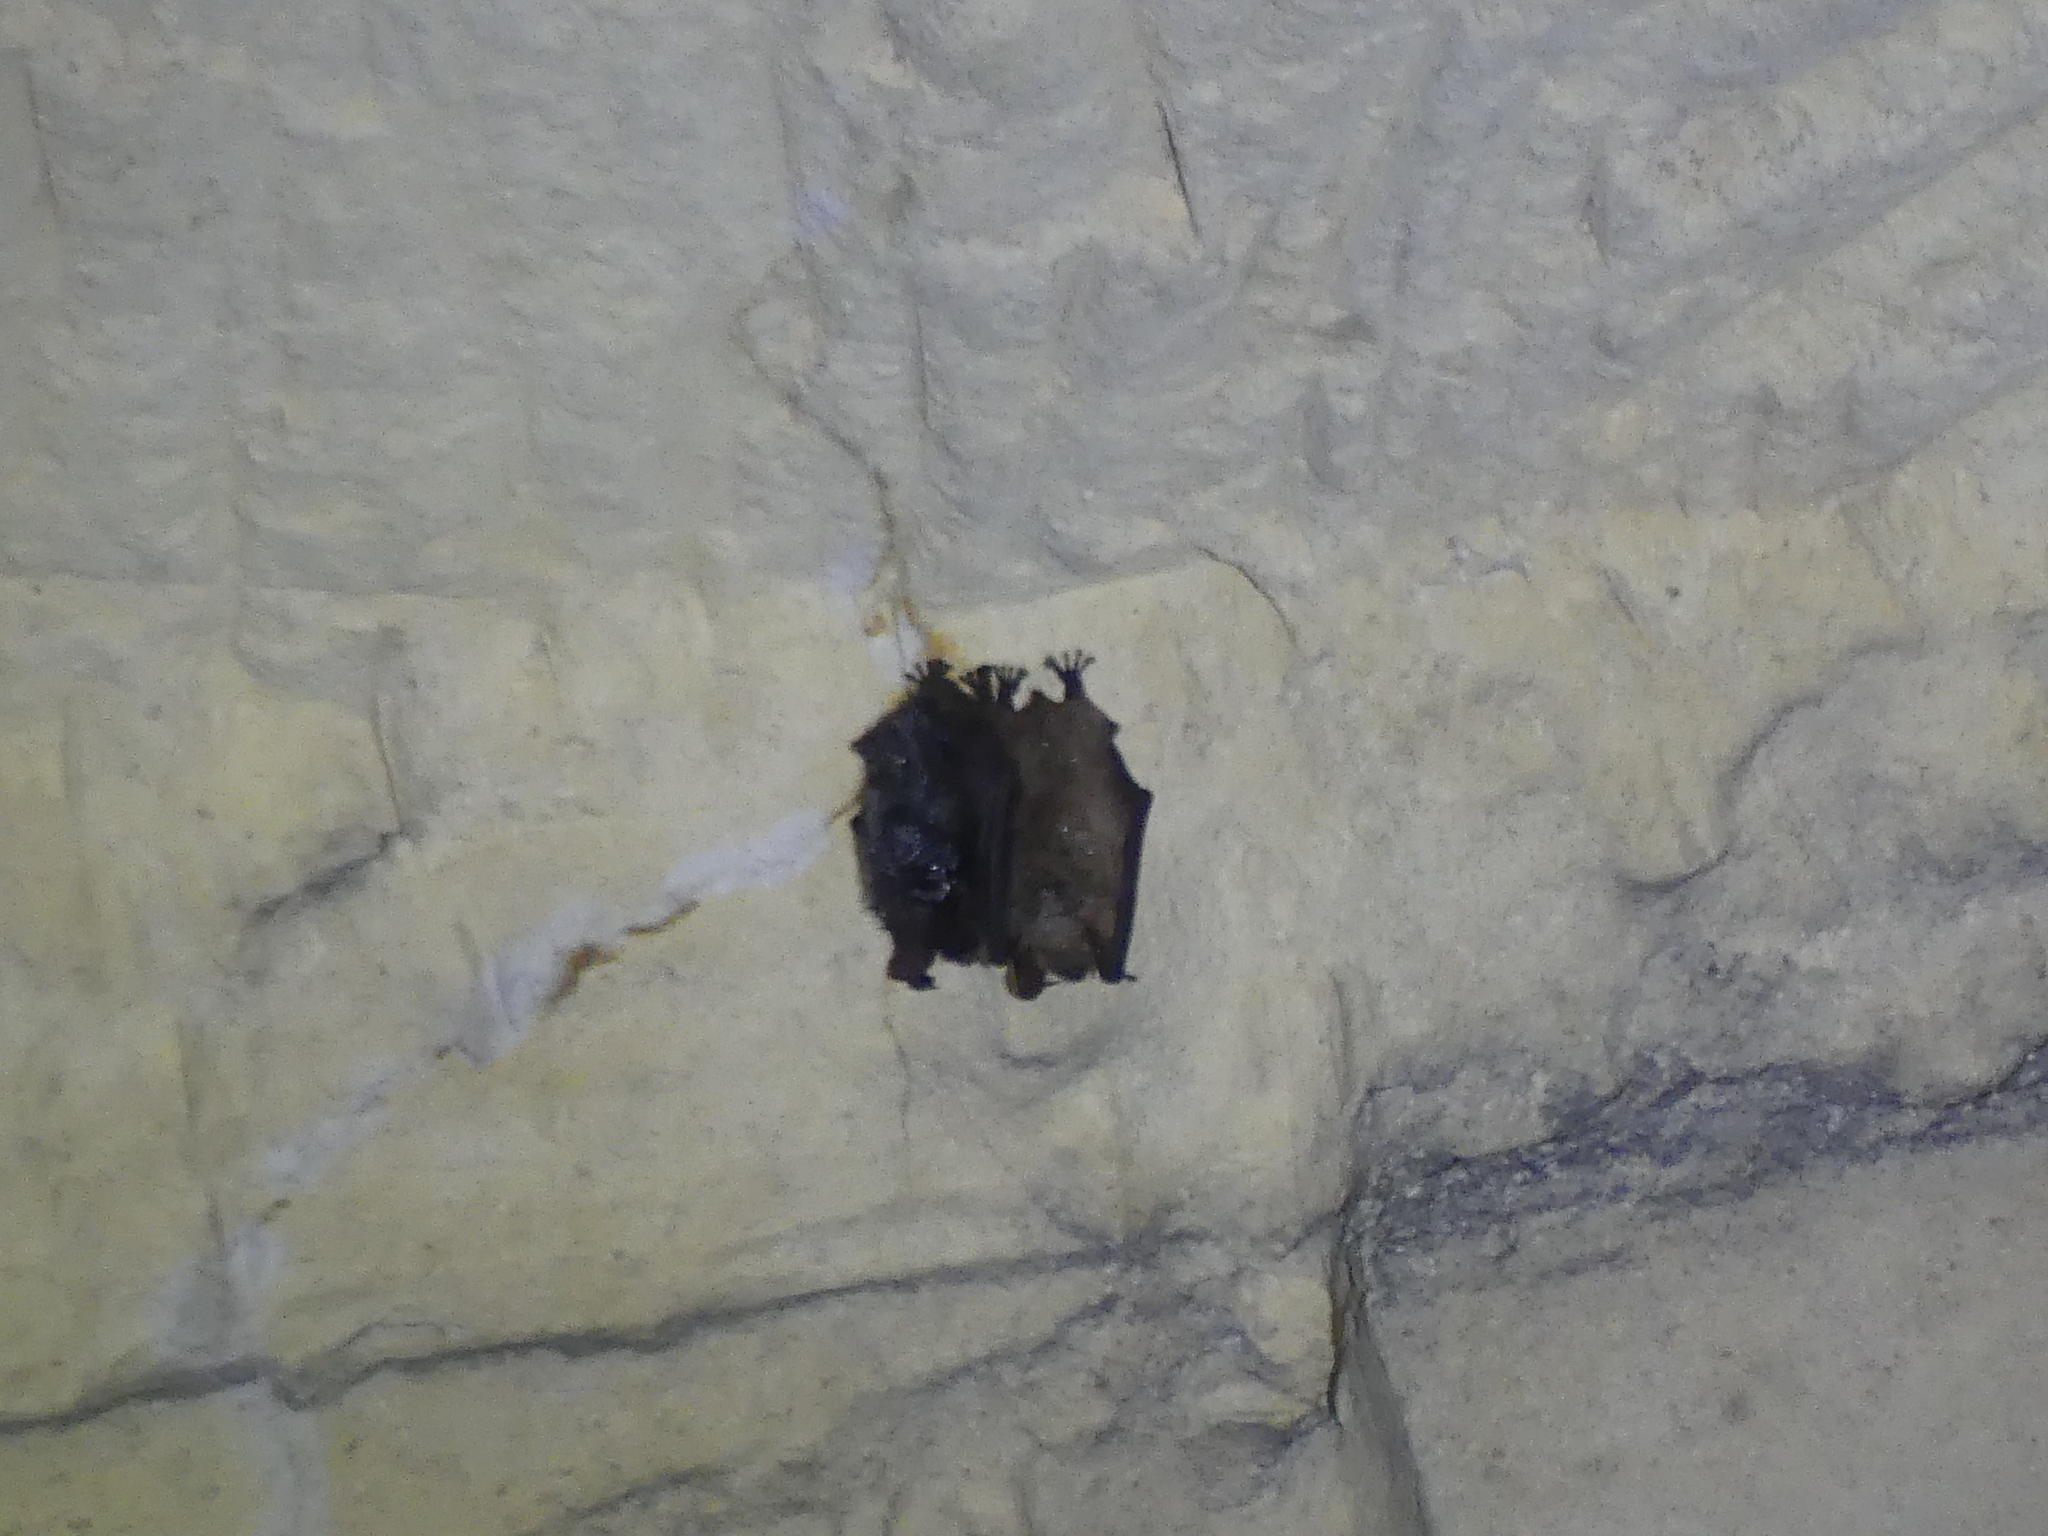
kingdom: Animalia
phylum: Chordata
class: Mammalia
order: Chiroptera
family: Vespertilionidae
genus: Myotis
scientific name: Myotis emarginatus
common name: Geoffroy's bat
